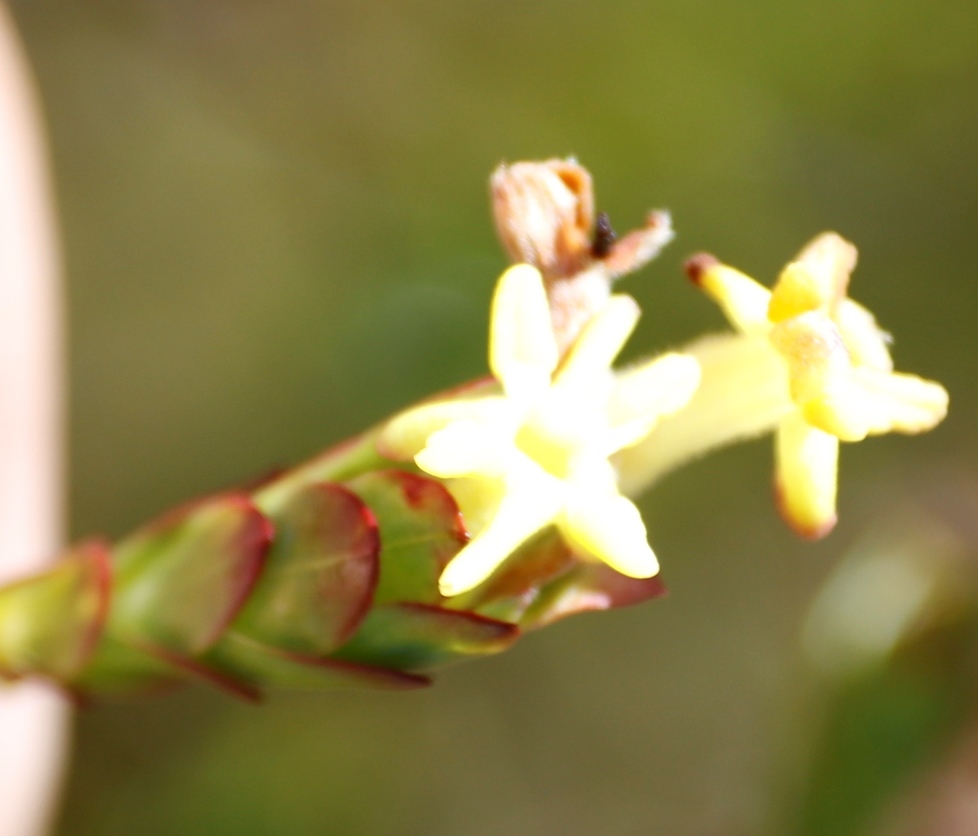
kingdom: Plantae
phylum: Tracheophyta
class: Magnoliopsida
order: Malvales
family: Thymelaeaceae
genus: Gnidia
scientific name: Gnidia oppositifolia
